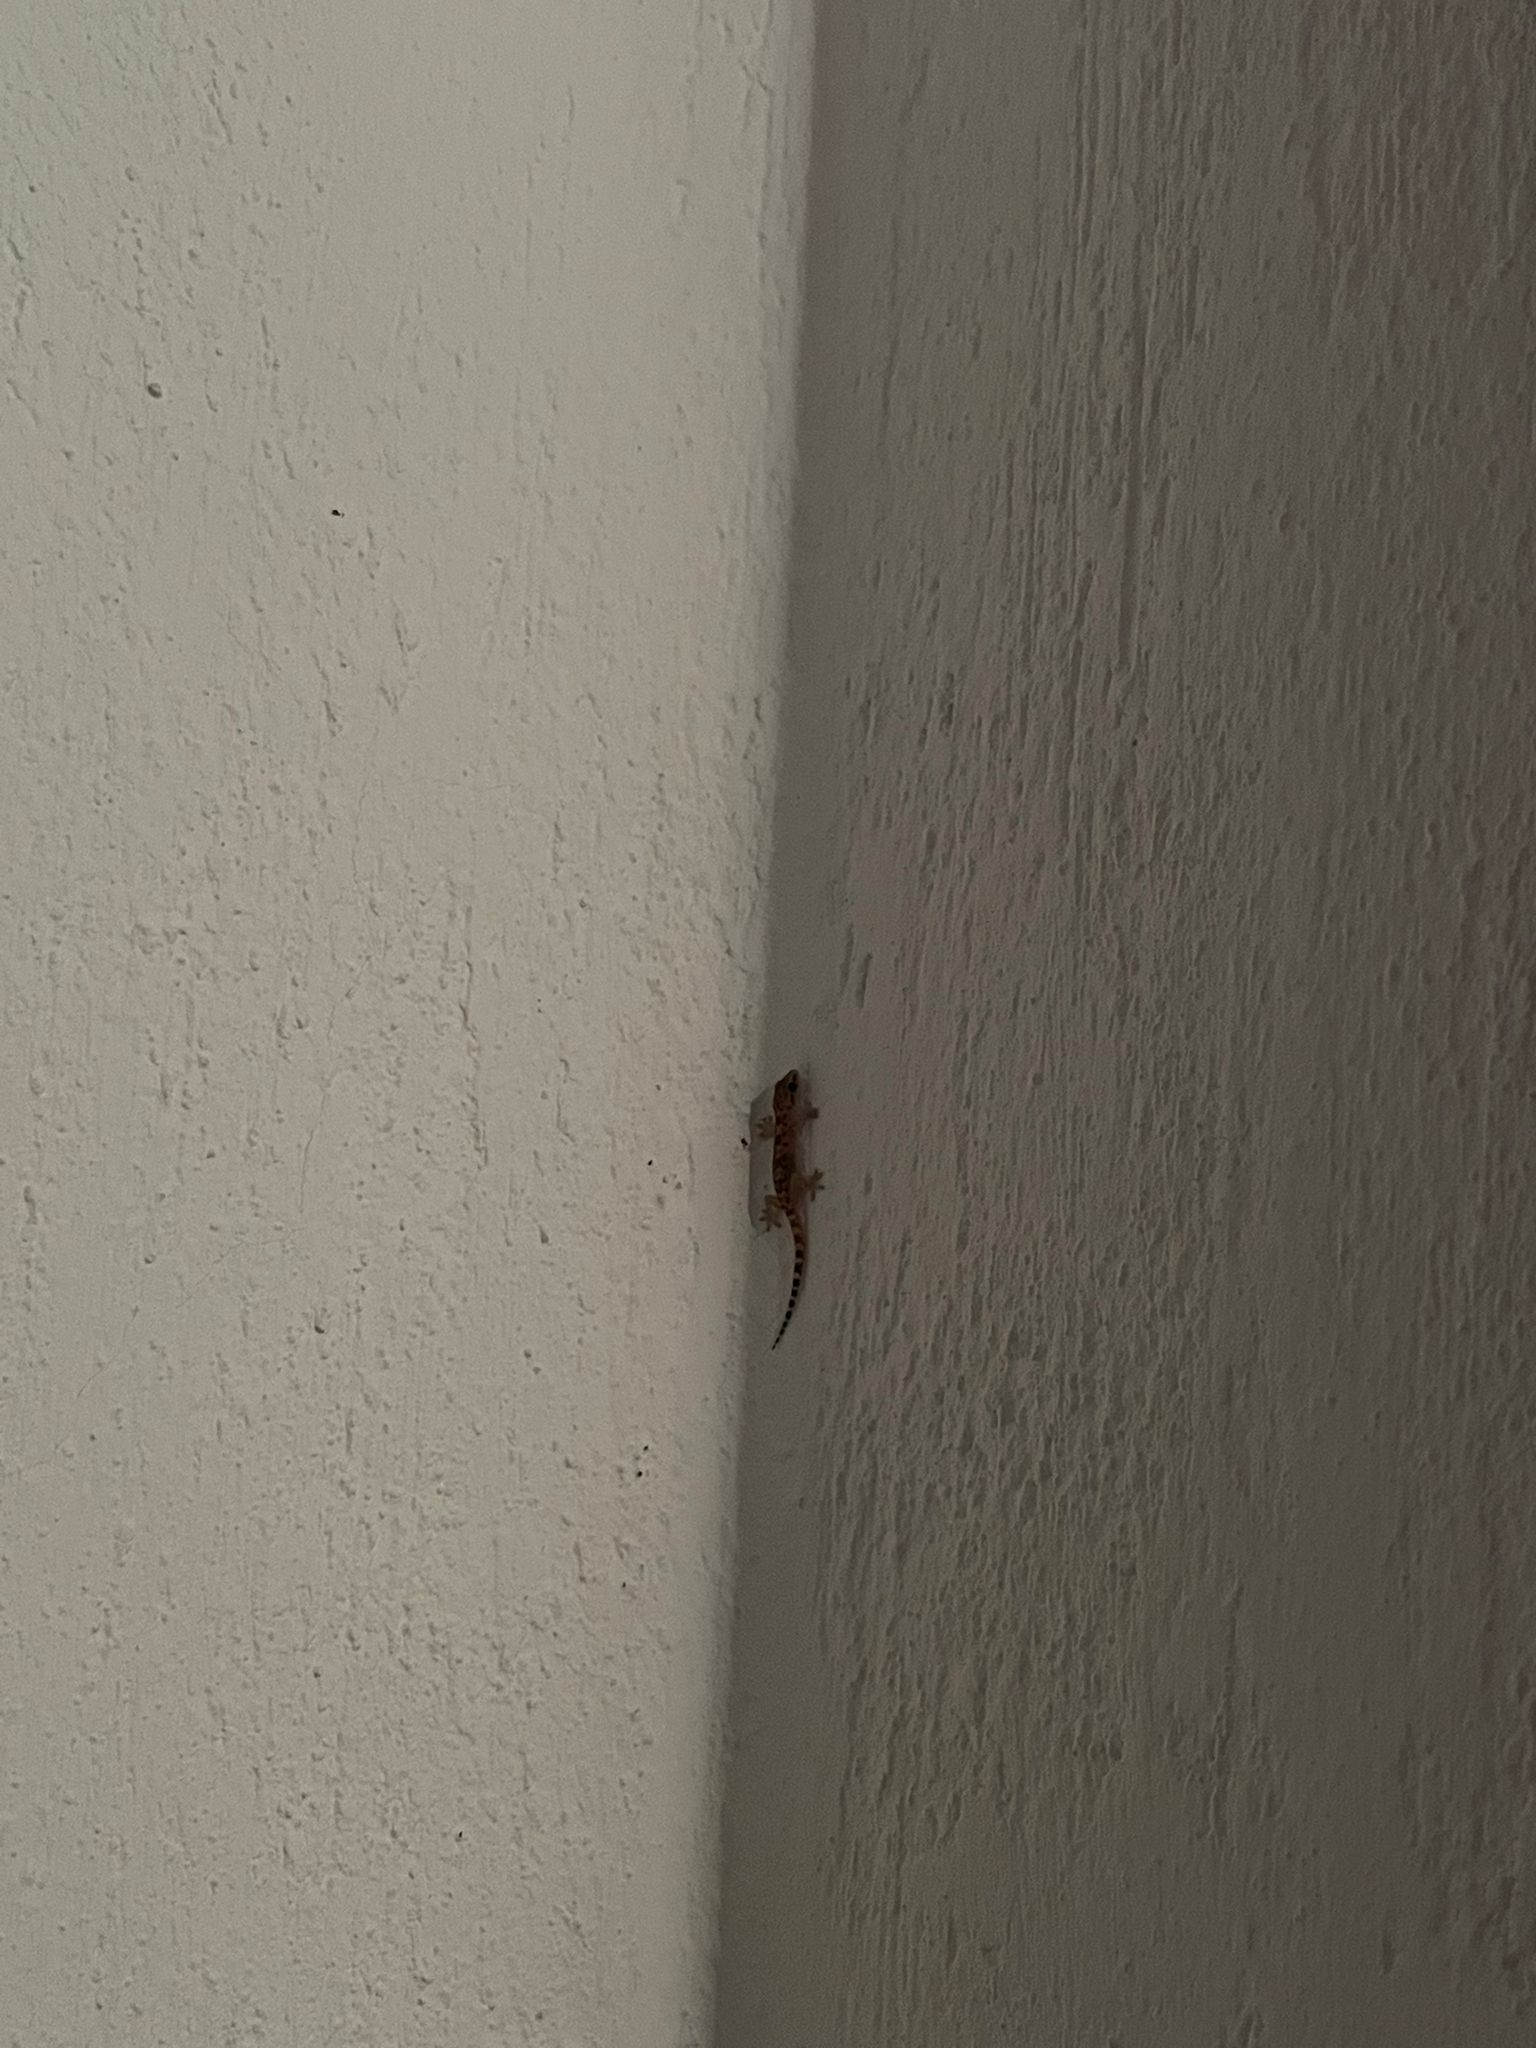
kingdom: Animalia
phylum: Chordata
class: Squamata
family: Gekkonidae
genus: Hemidactylus
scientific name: Hemidactylus turcicus
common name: Turkish gecko
